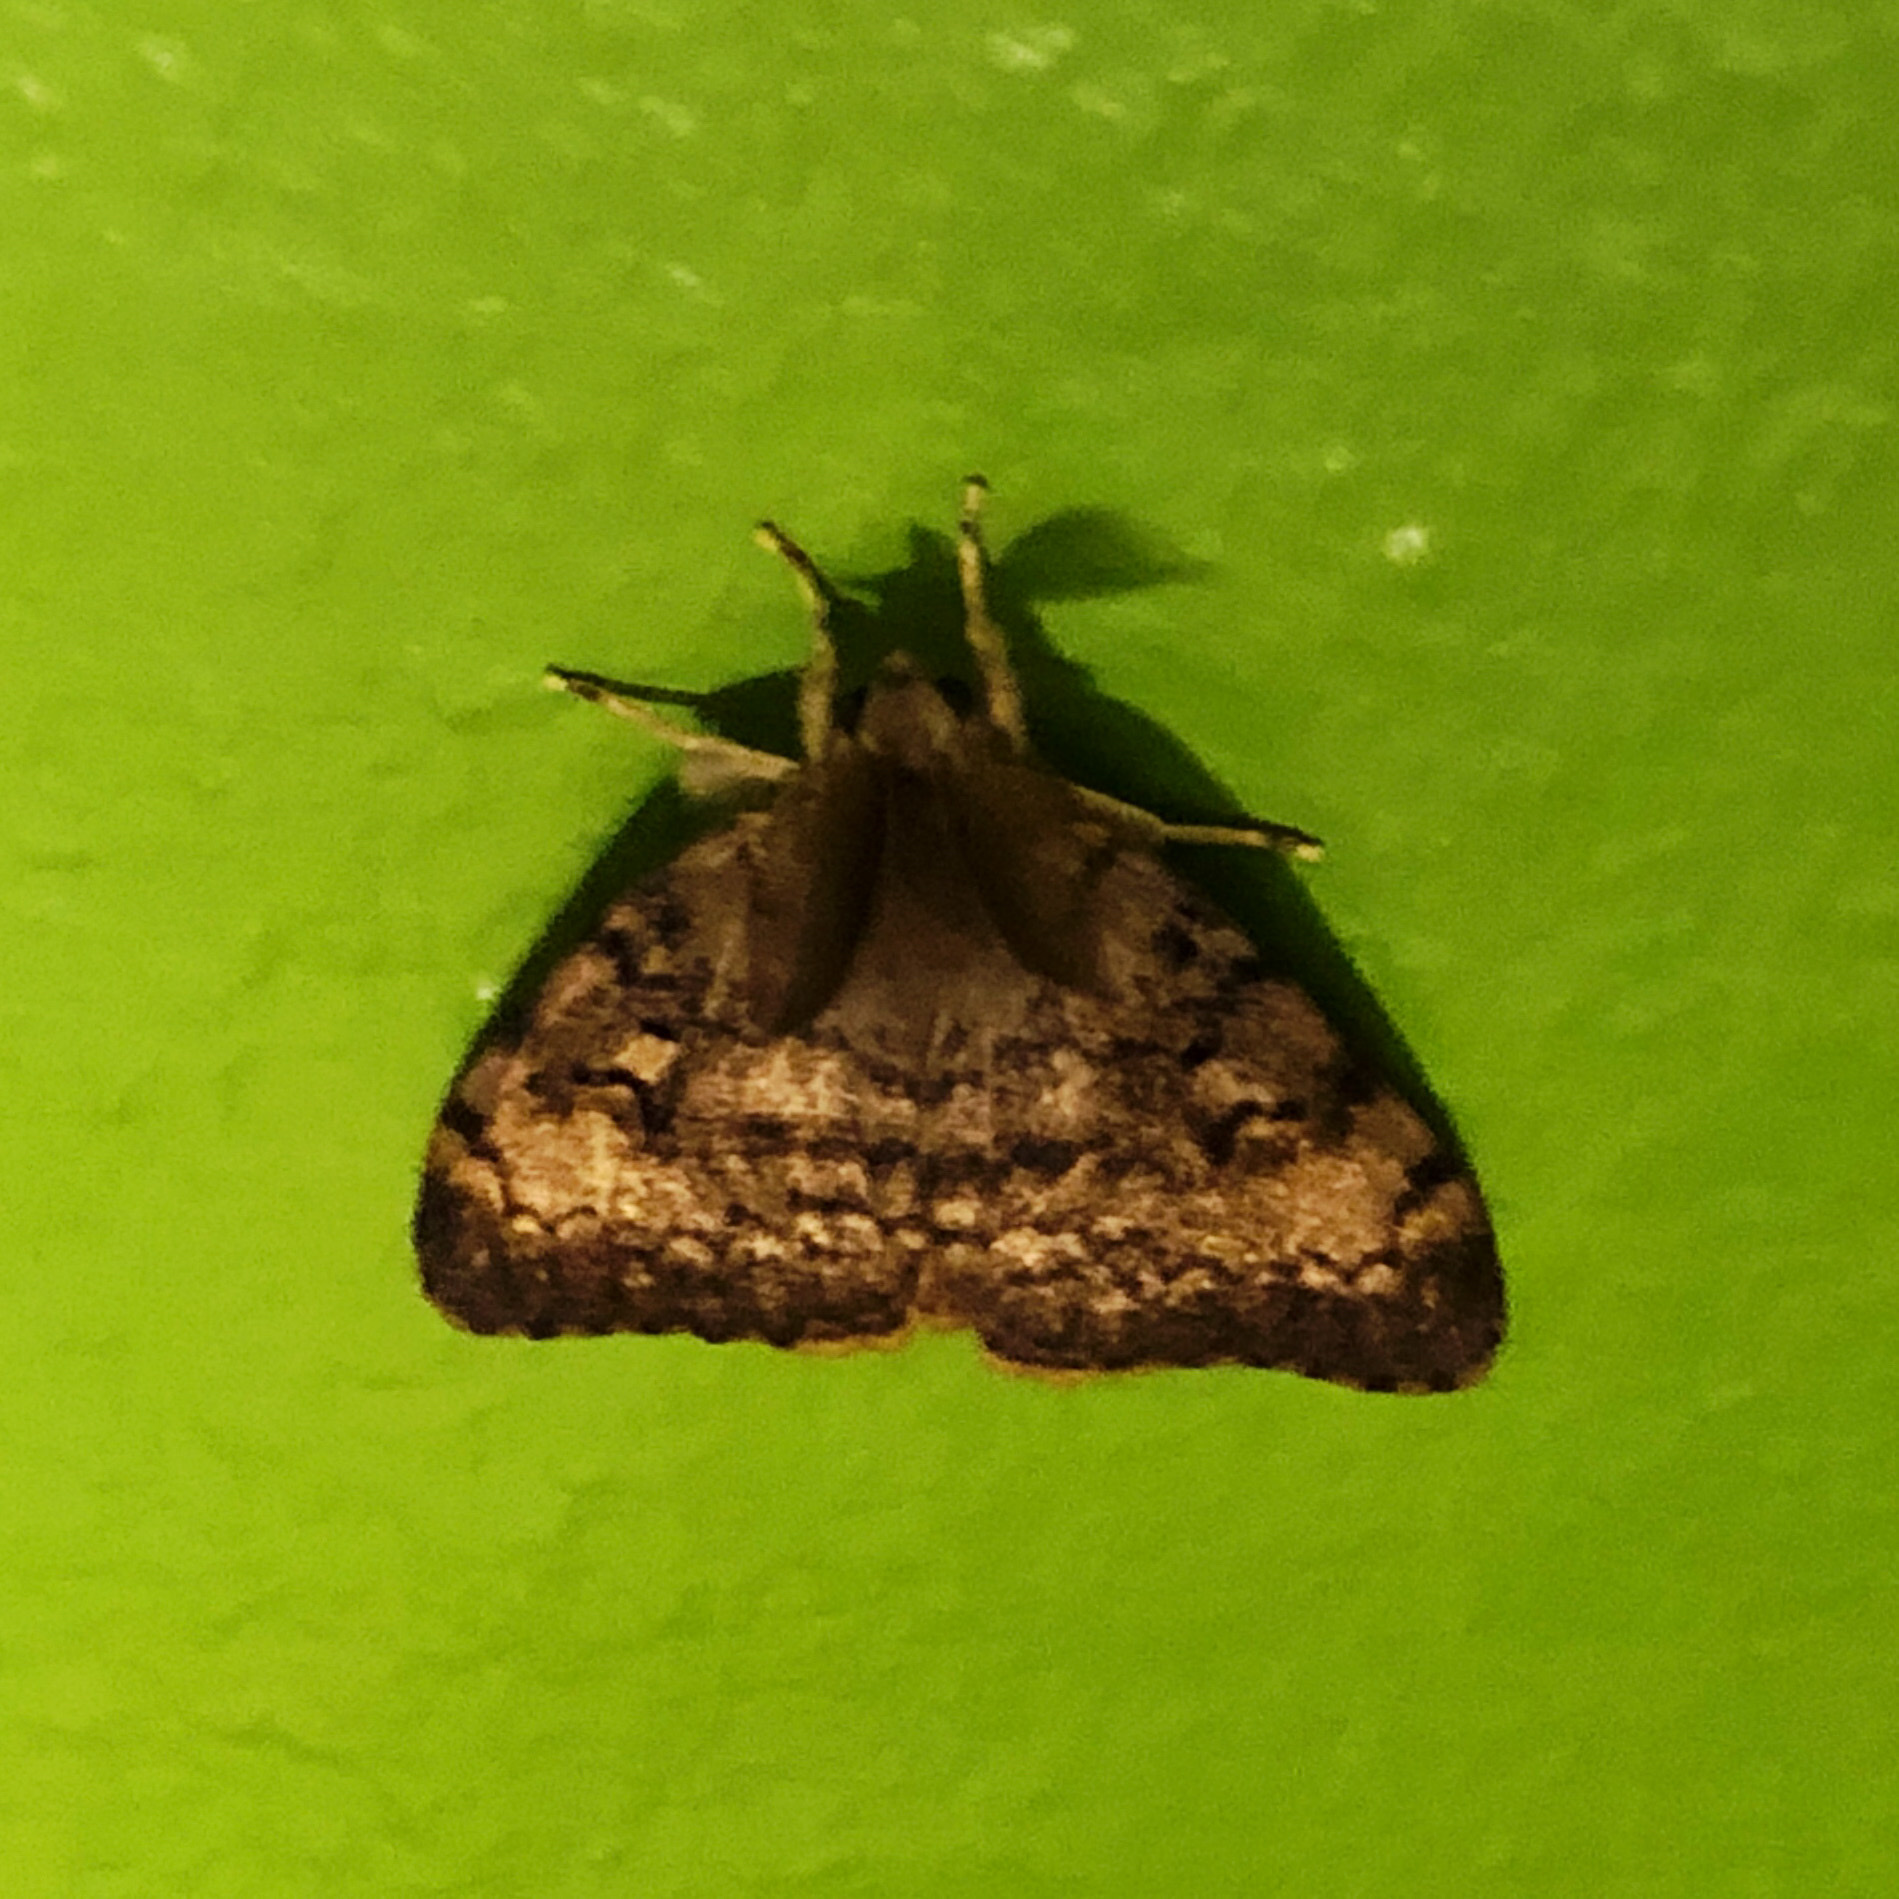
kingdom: Animalia
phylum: Arthropoda
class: Insecta
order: Lepidoptera
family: Erebidae
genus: Lymantria
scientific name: Lymantria dispar
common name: Gypsy moth
